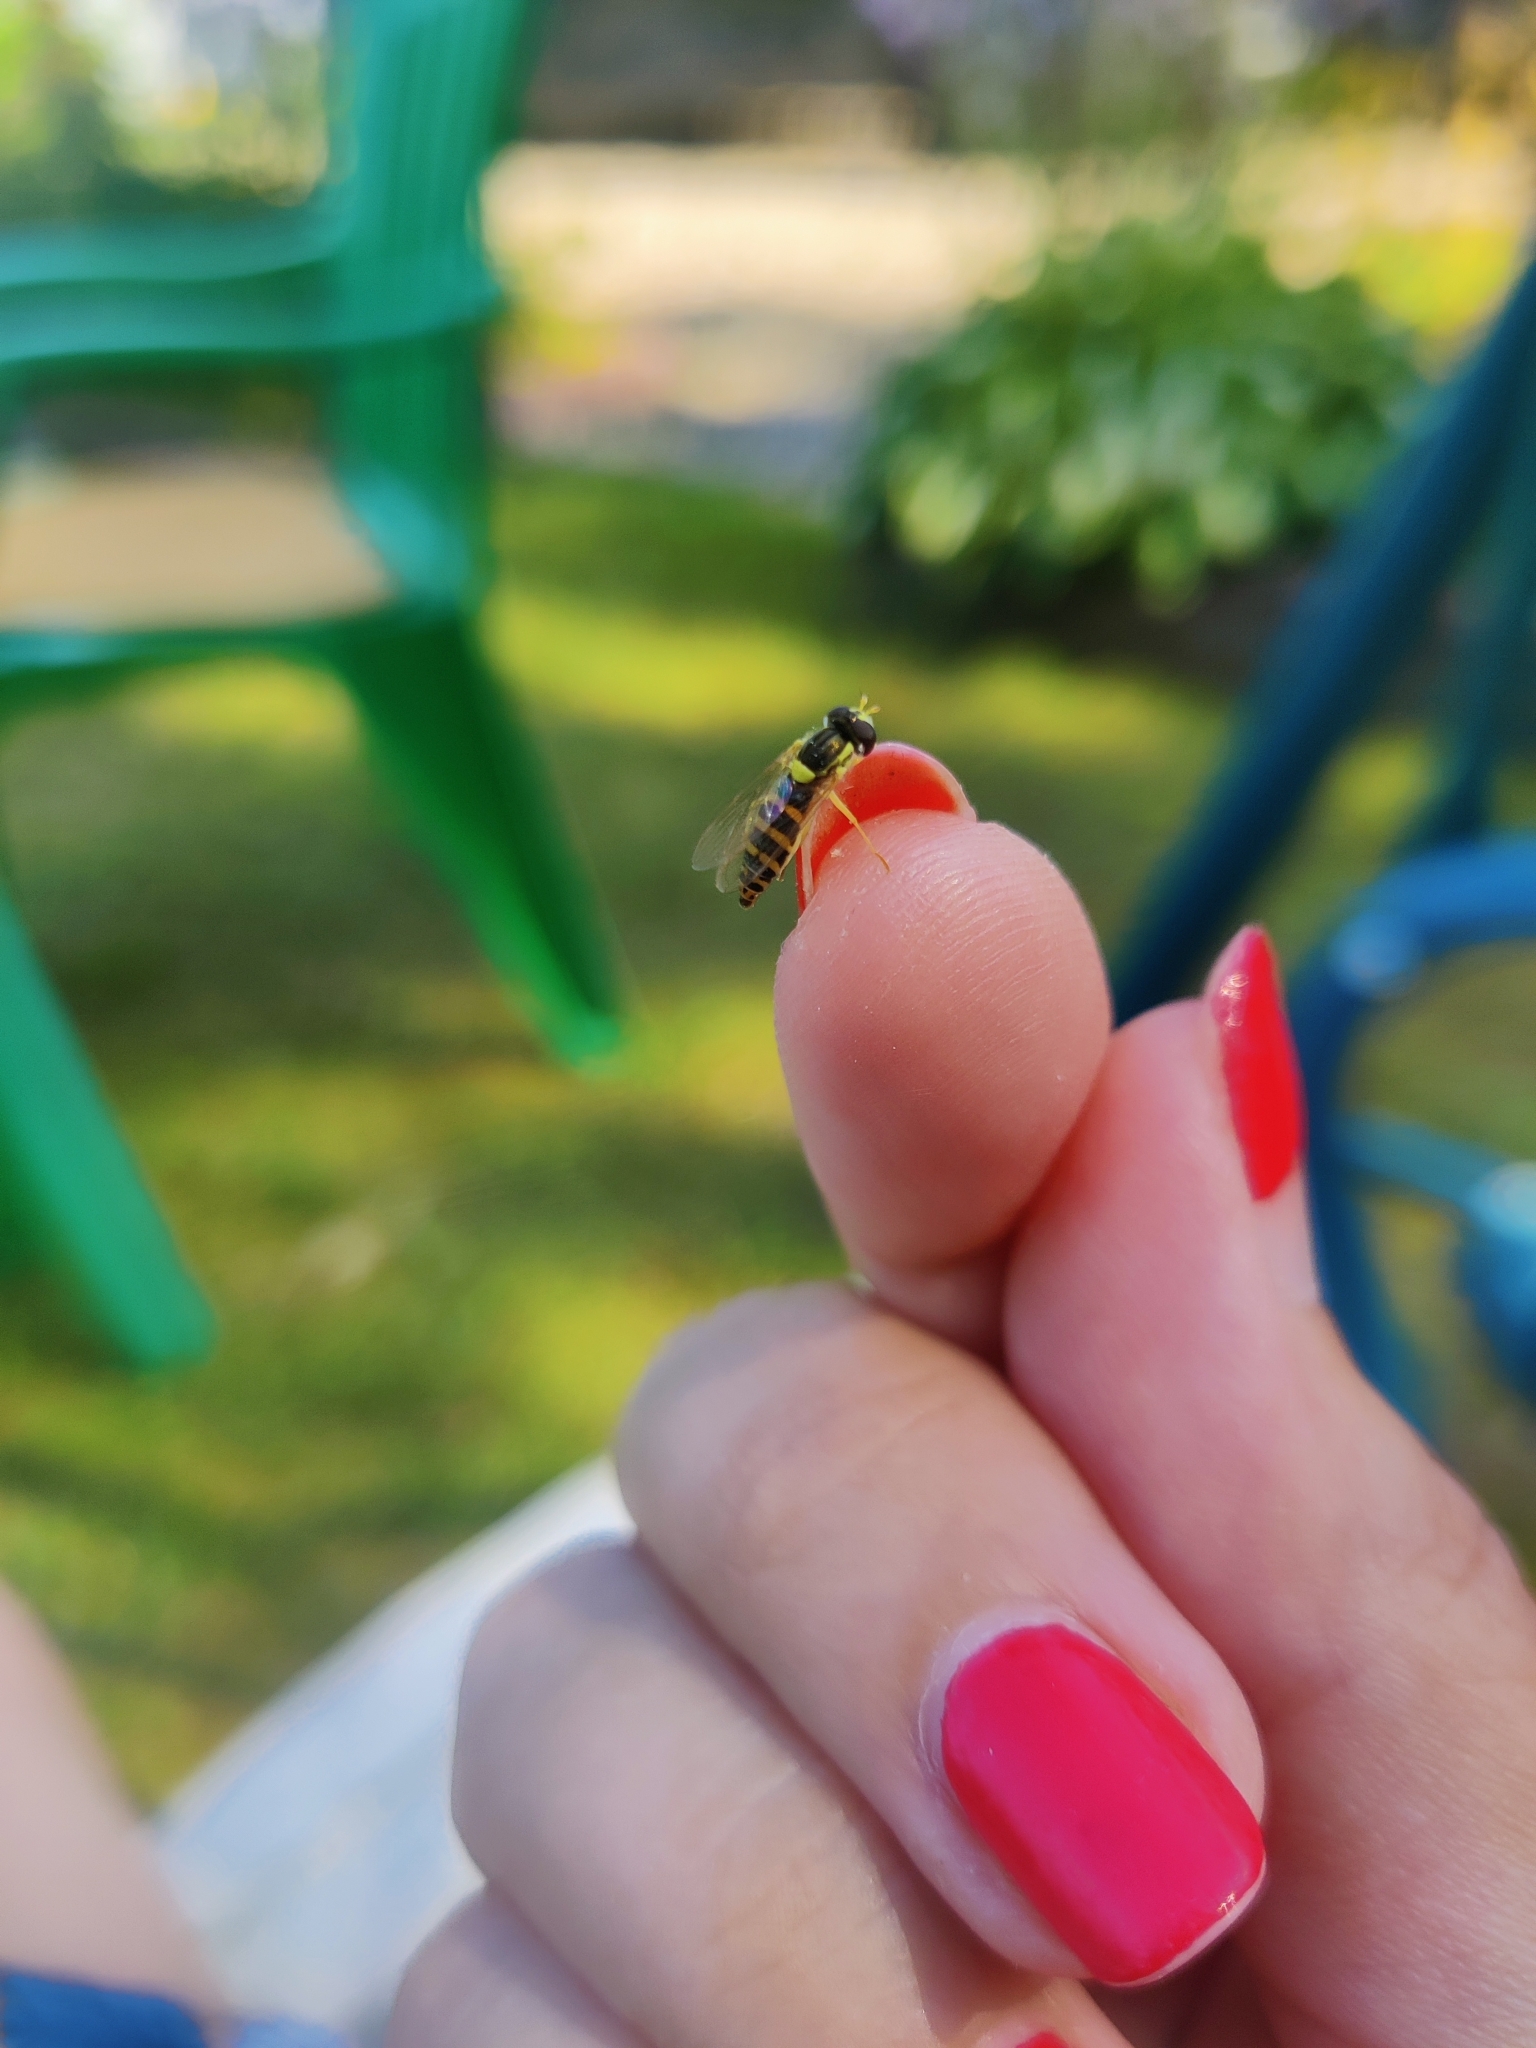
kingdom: Animalia
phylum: Arthropoda
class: Insecta
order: Diptera
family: Syrphidae
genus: Sphaerophoria
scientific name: Sphaerophoria scripta
